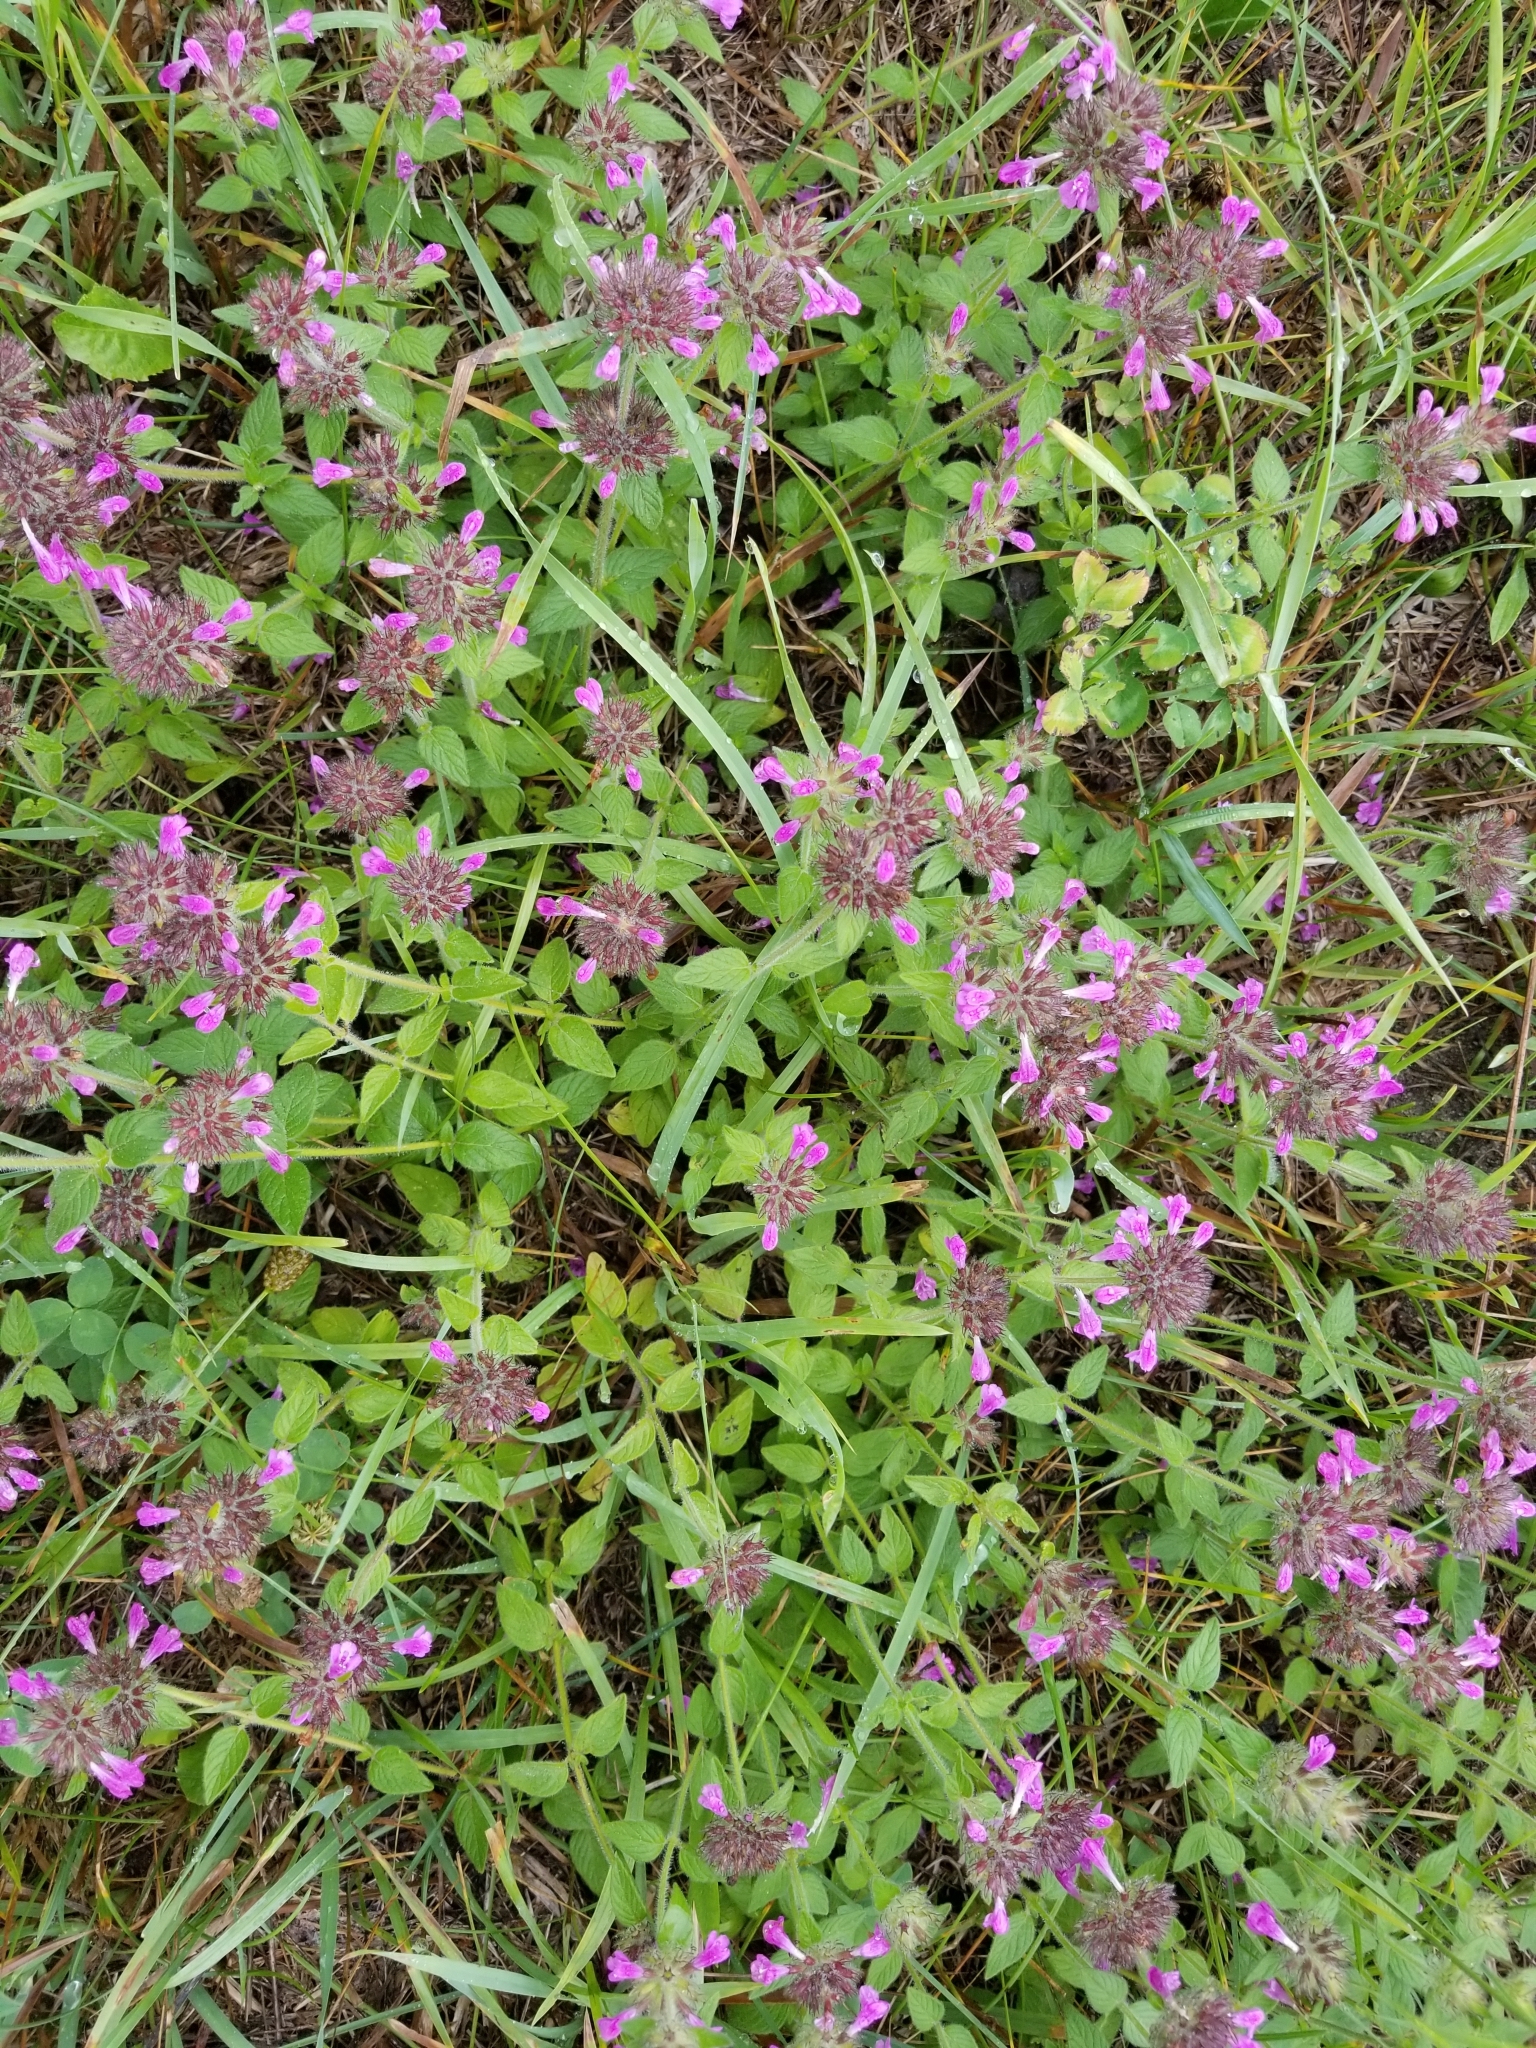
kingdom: Plantae
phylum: Tracheophyta
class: Magnoliopsida
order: Lamiales
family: Lamiaceae
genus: Clinopodium
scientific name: Clinopodium vulgare
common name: Wild basil
